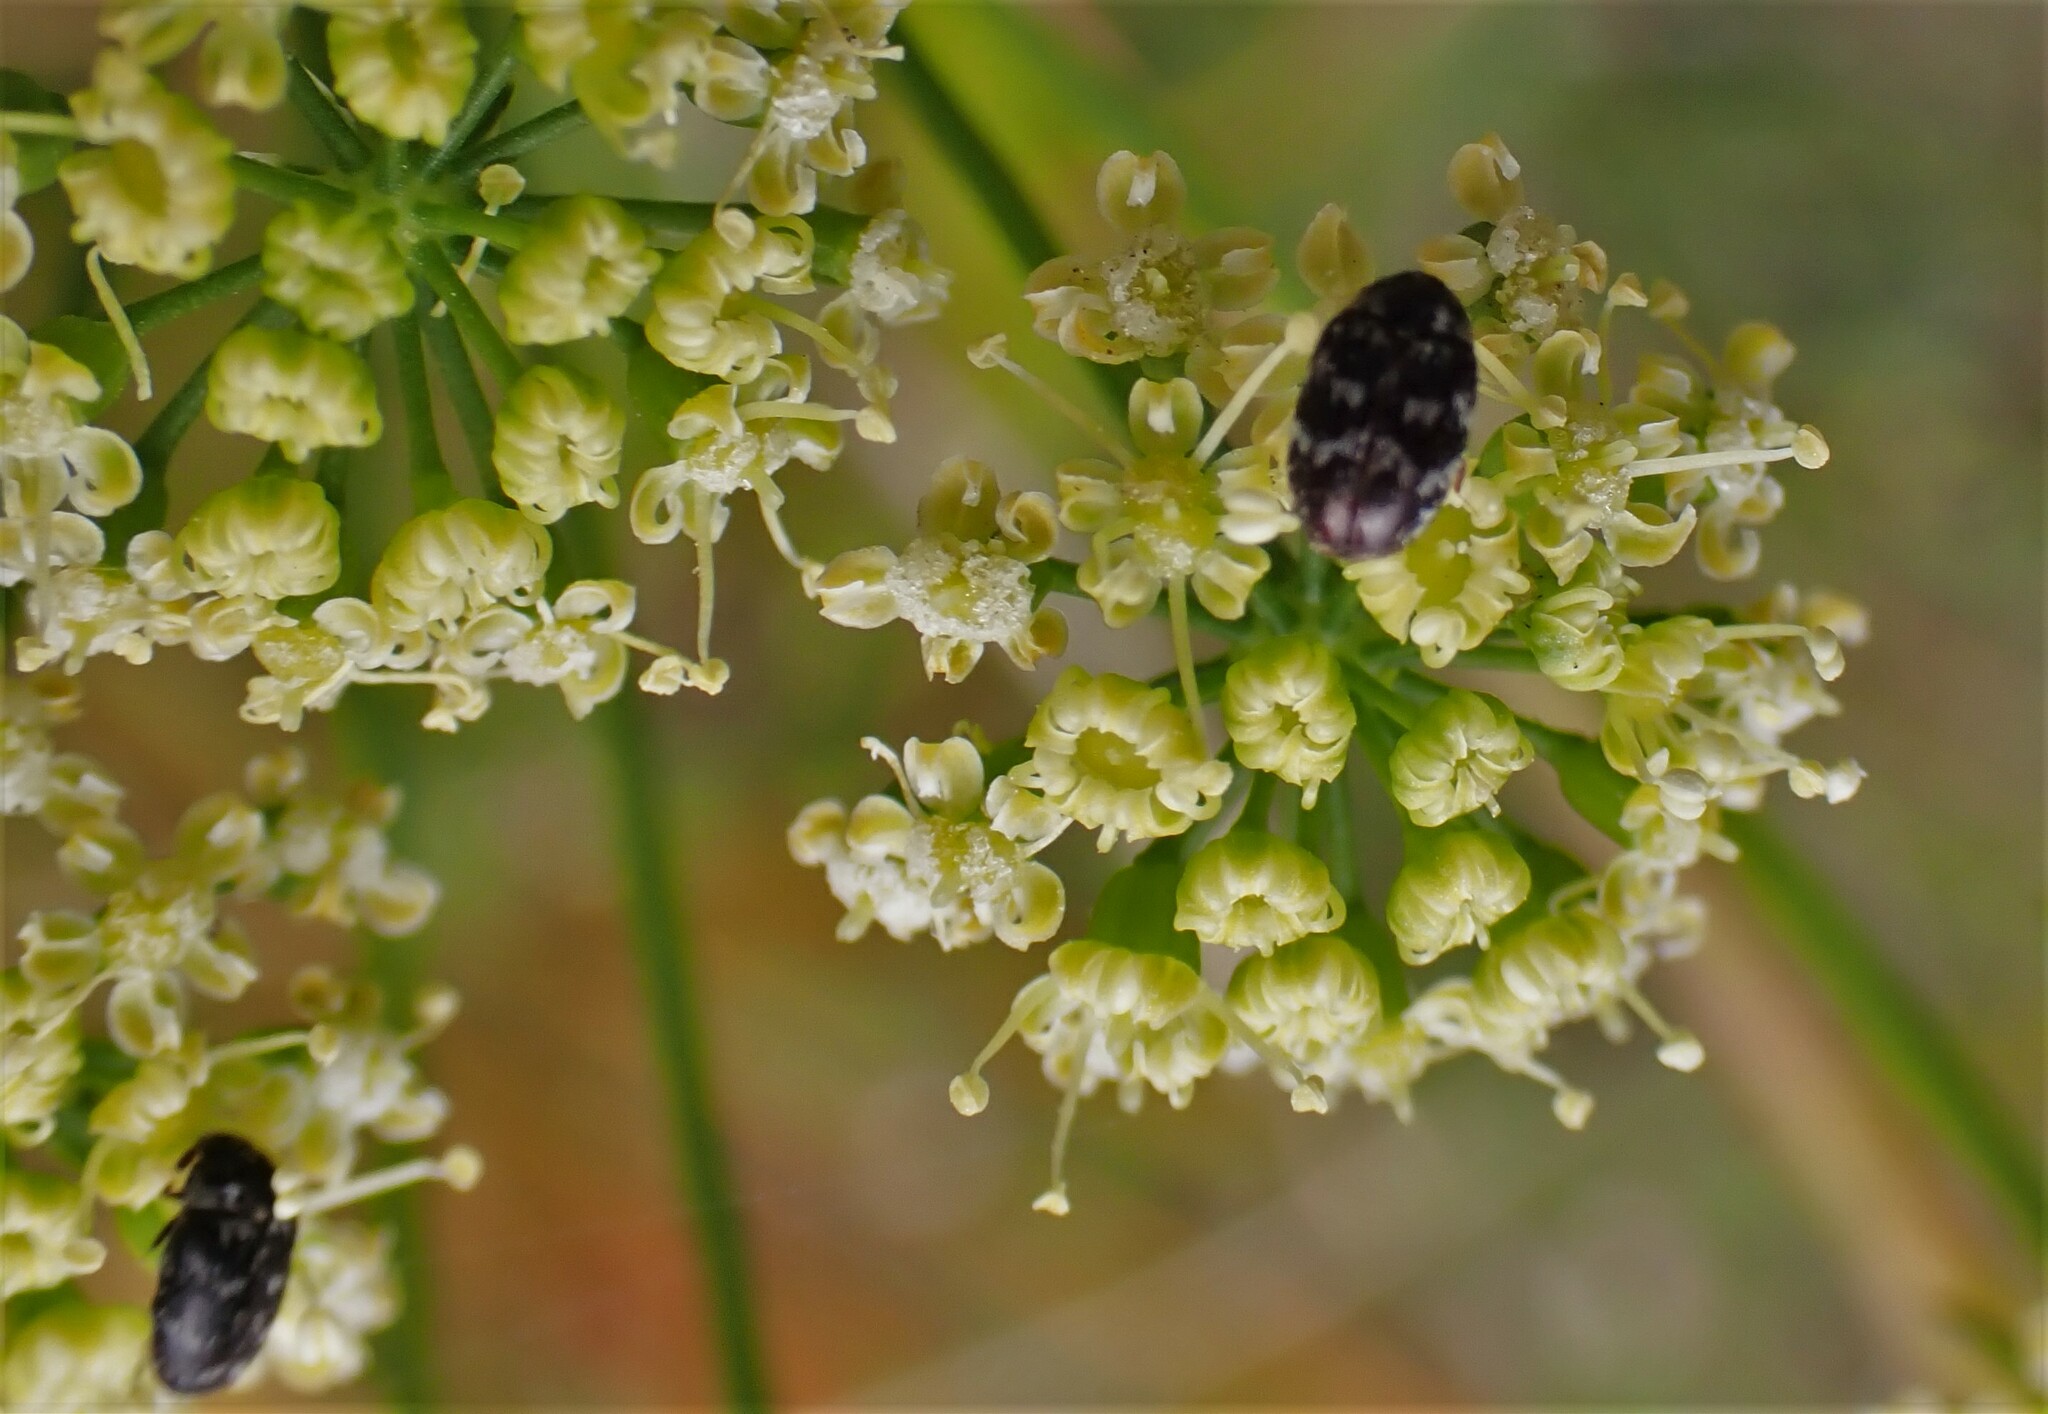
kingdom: Animalia
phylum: Arthropoda
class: Insecta
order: Coleoptera
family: Dermestidae
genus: Anthrenocerus
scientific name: Anthrenocerus australis
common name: Australian carpet beetle
